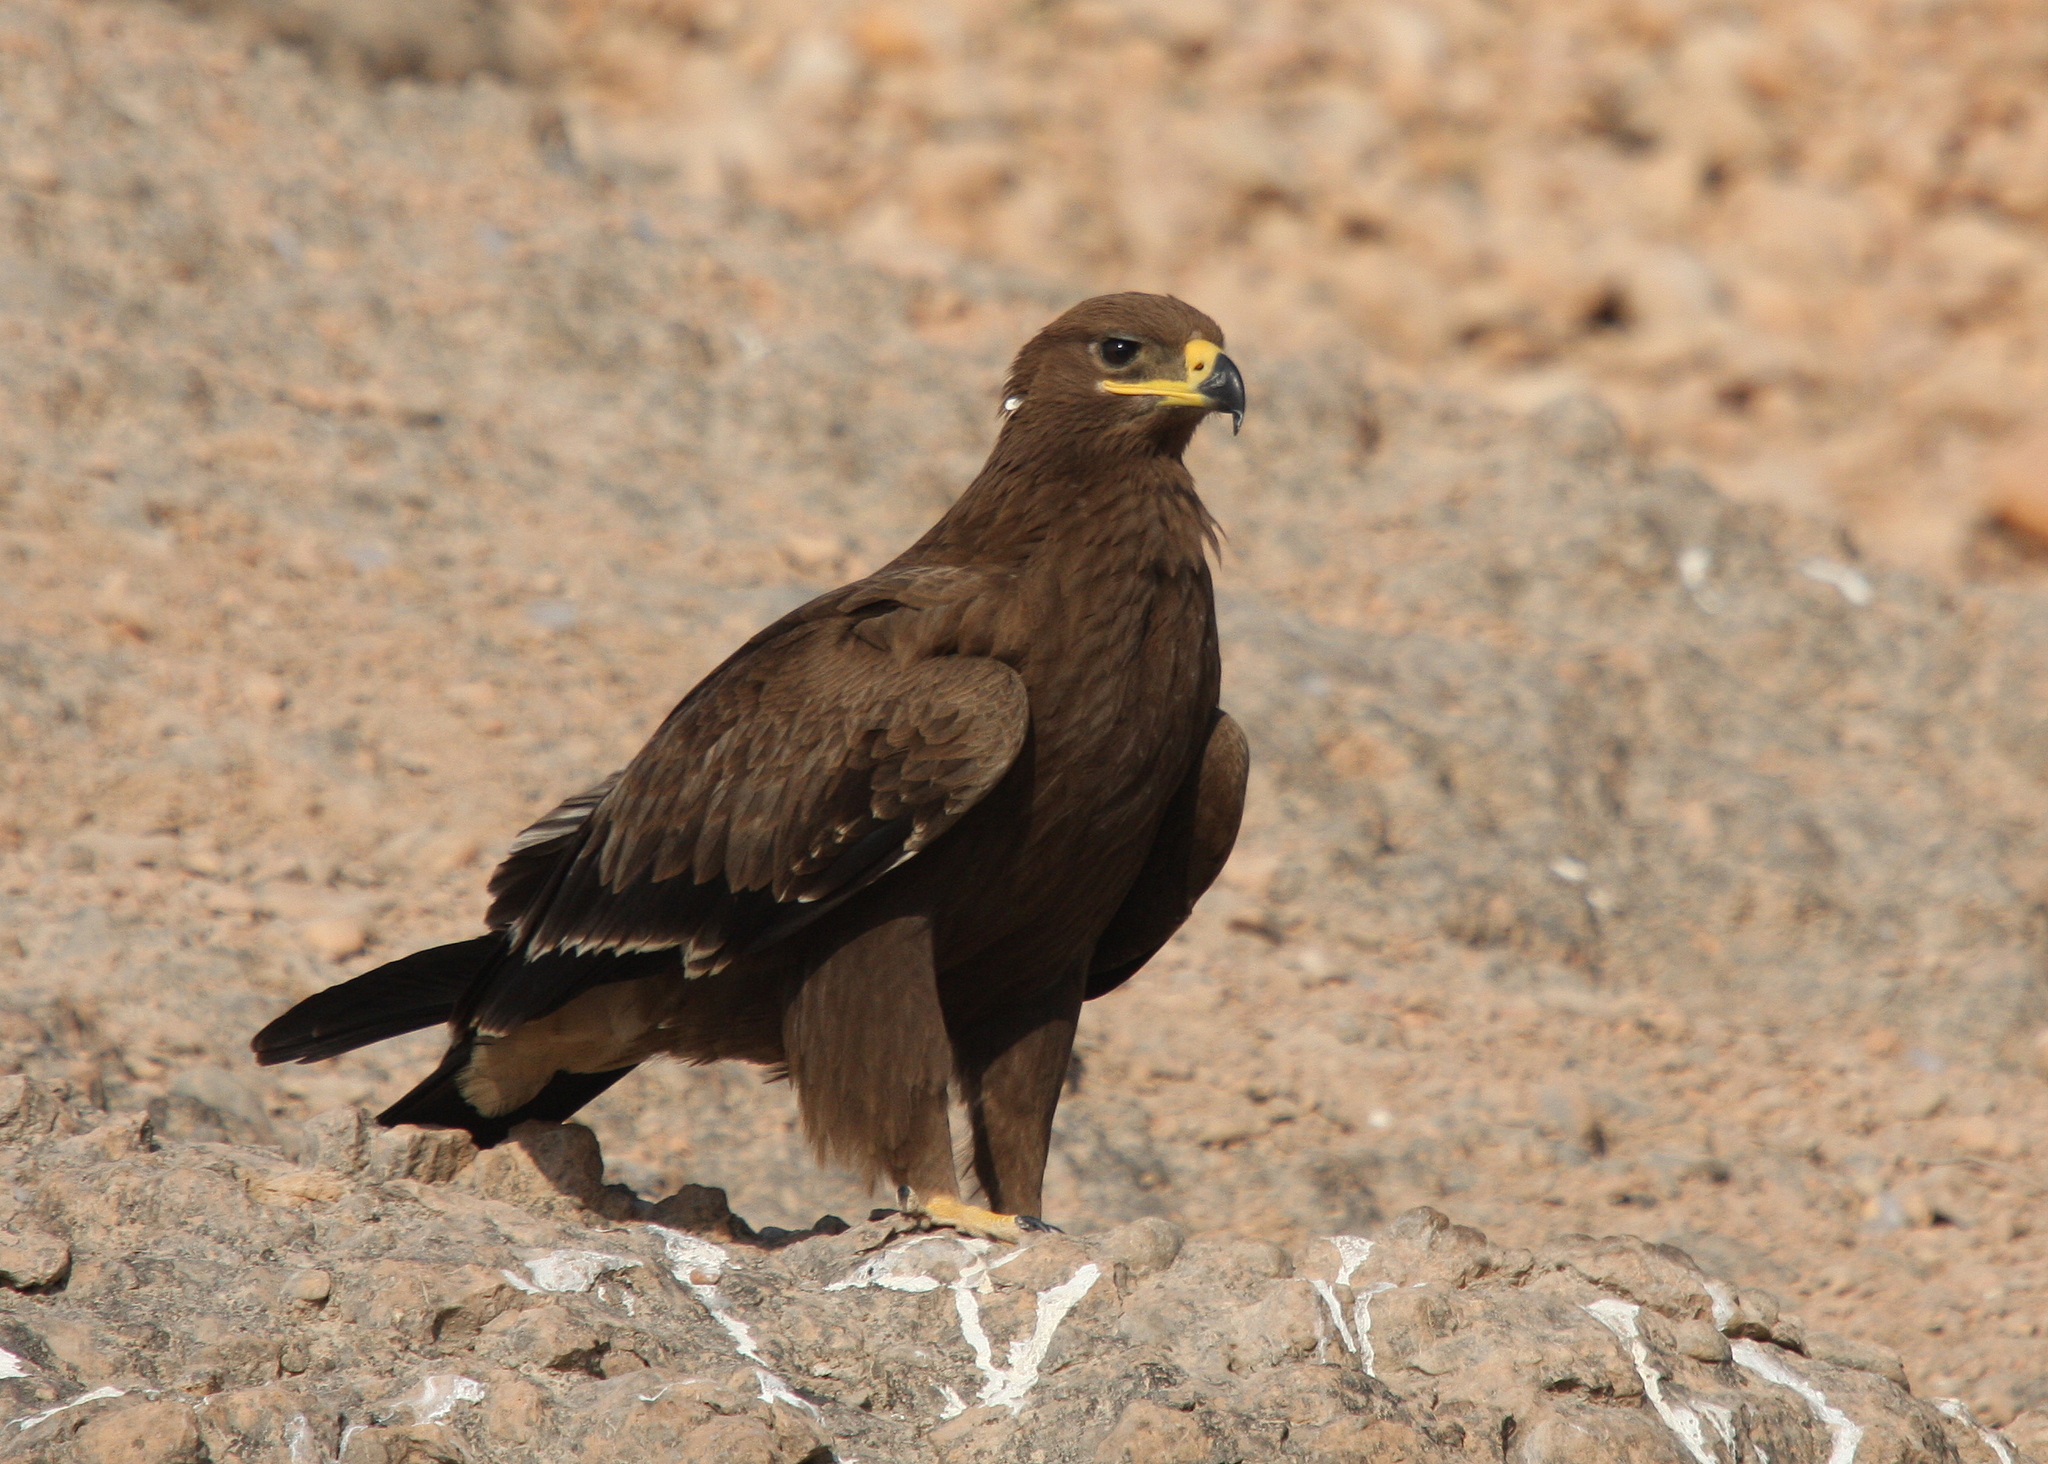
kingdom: Animalia
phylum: Chordata
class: Aves
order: Accipitriformes
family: Accipitridae
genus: Aquila
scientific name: Aquila nipalensis
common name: Steppe eagle
